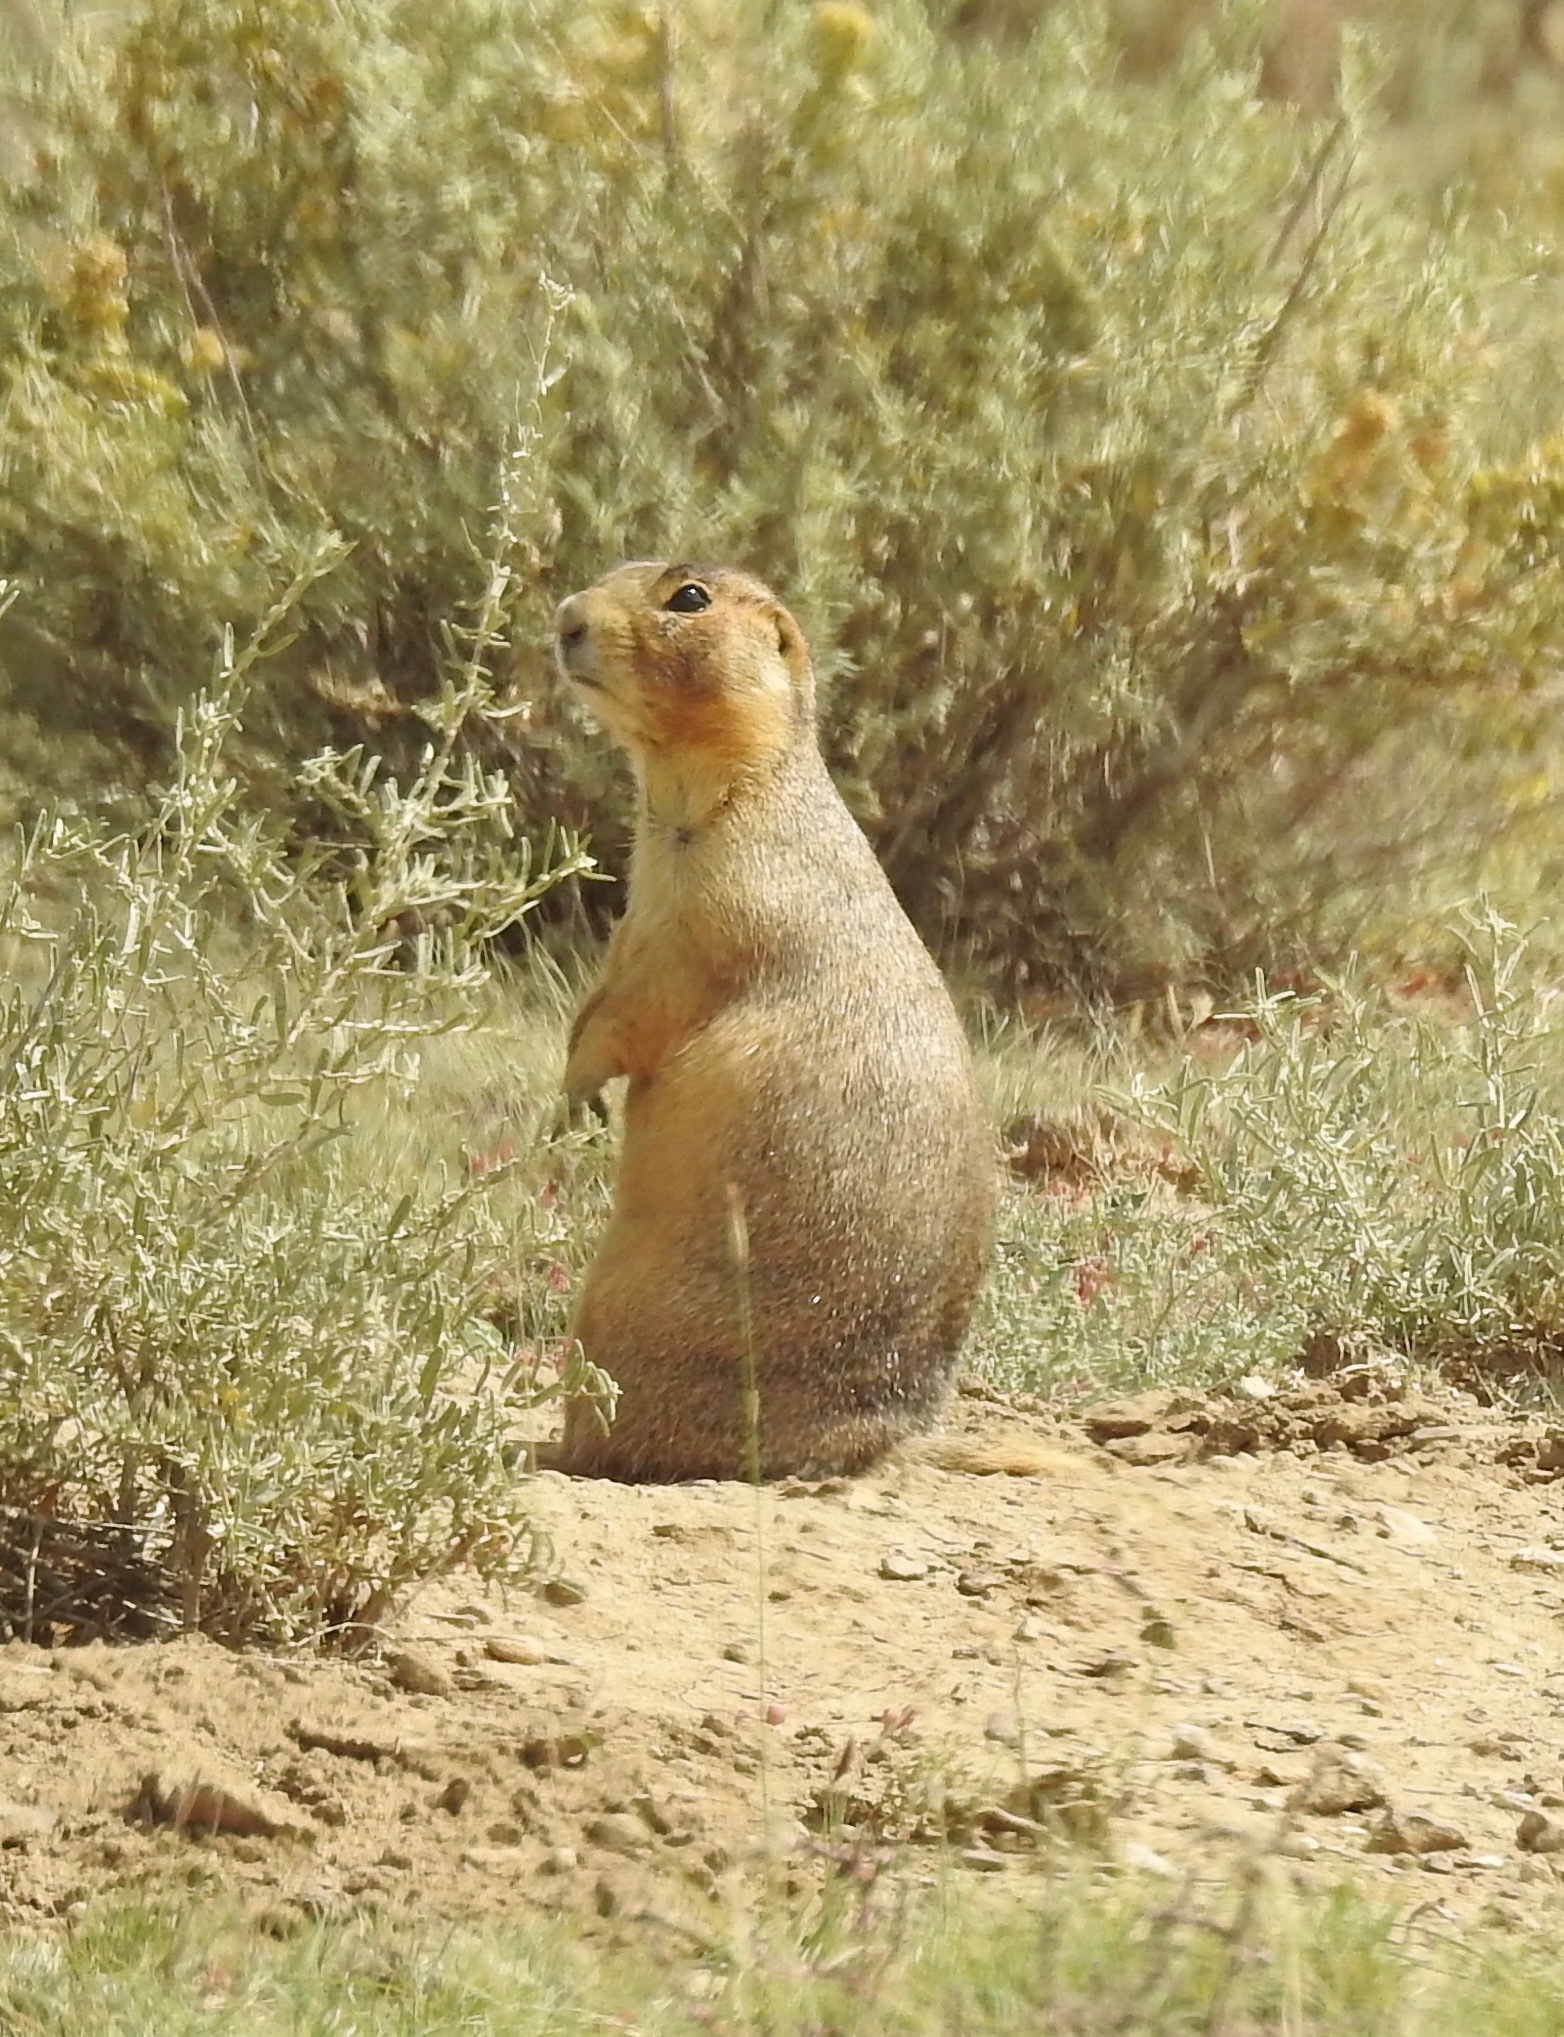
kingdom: Animalia
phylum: Chordata
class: Mammalia
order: Rodentia
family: Sciuridae
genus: Cynomys
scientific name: Cynomys gunnisoni
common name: Gunnison's prairie dog
